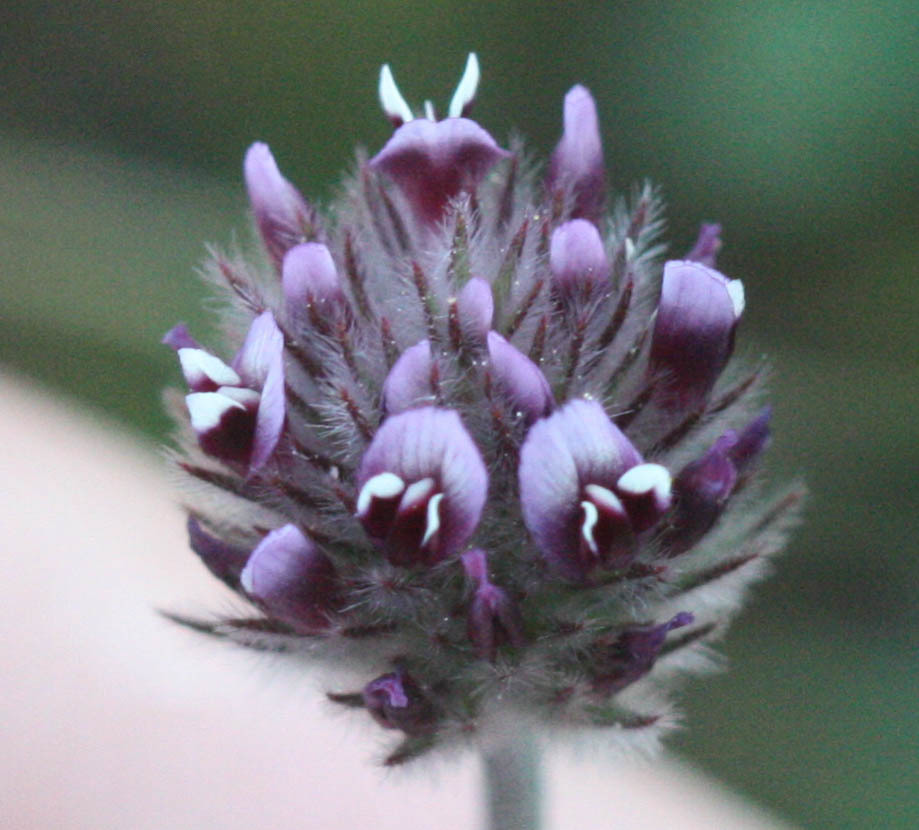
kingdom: Plantae
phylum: Tracheophyta
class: Magnoliopsida
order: Fabales
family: Fabaceae
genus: Trifolium
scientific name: Trifolium albopurpureum
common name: Rancheria clover
